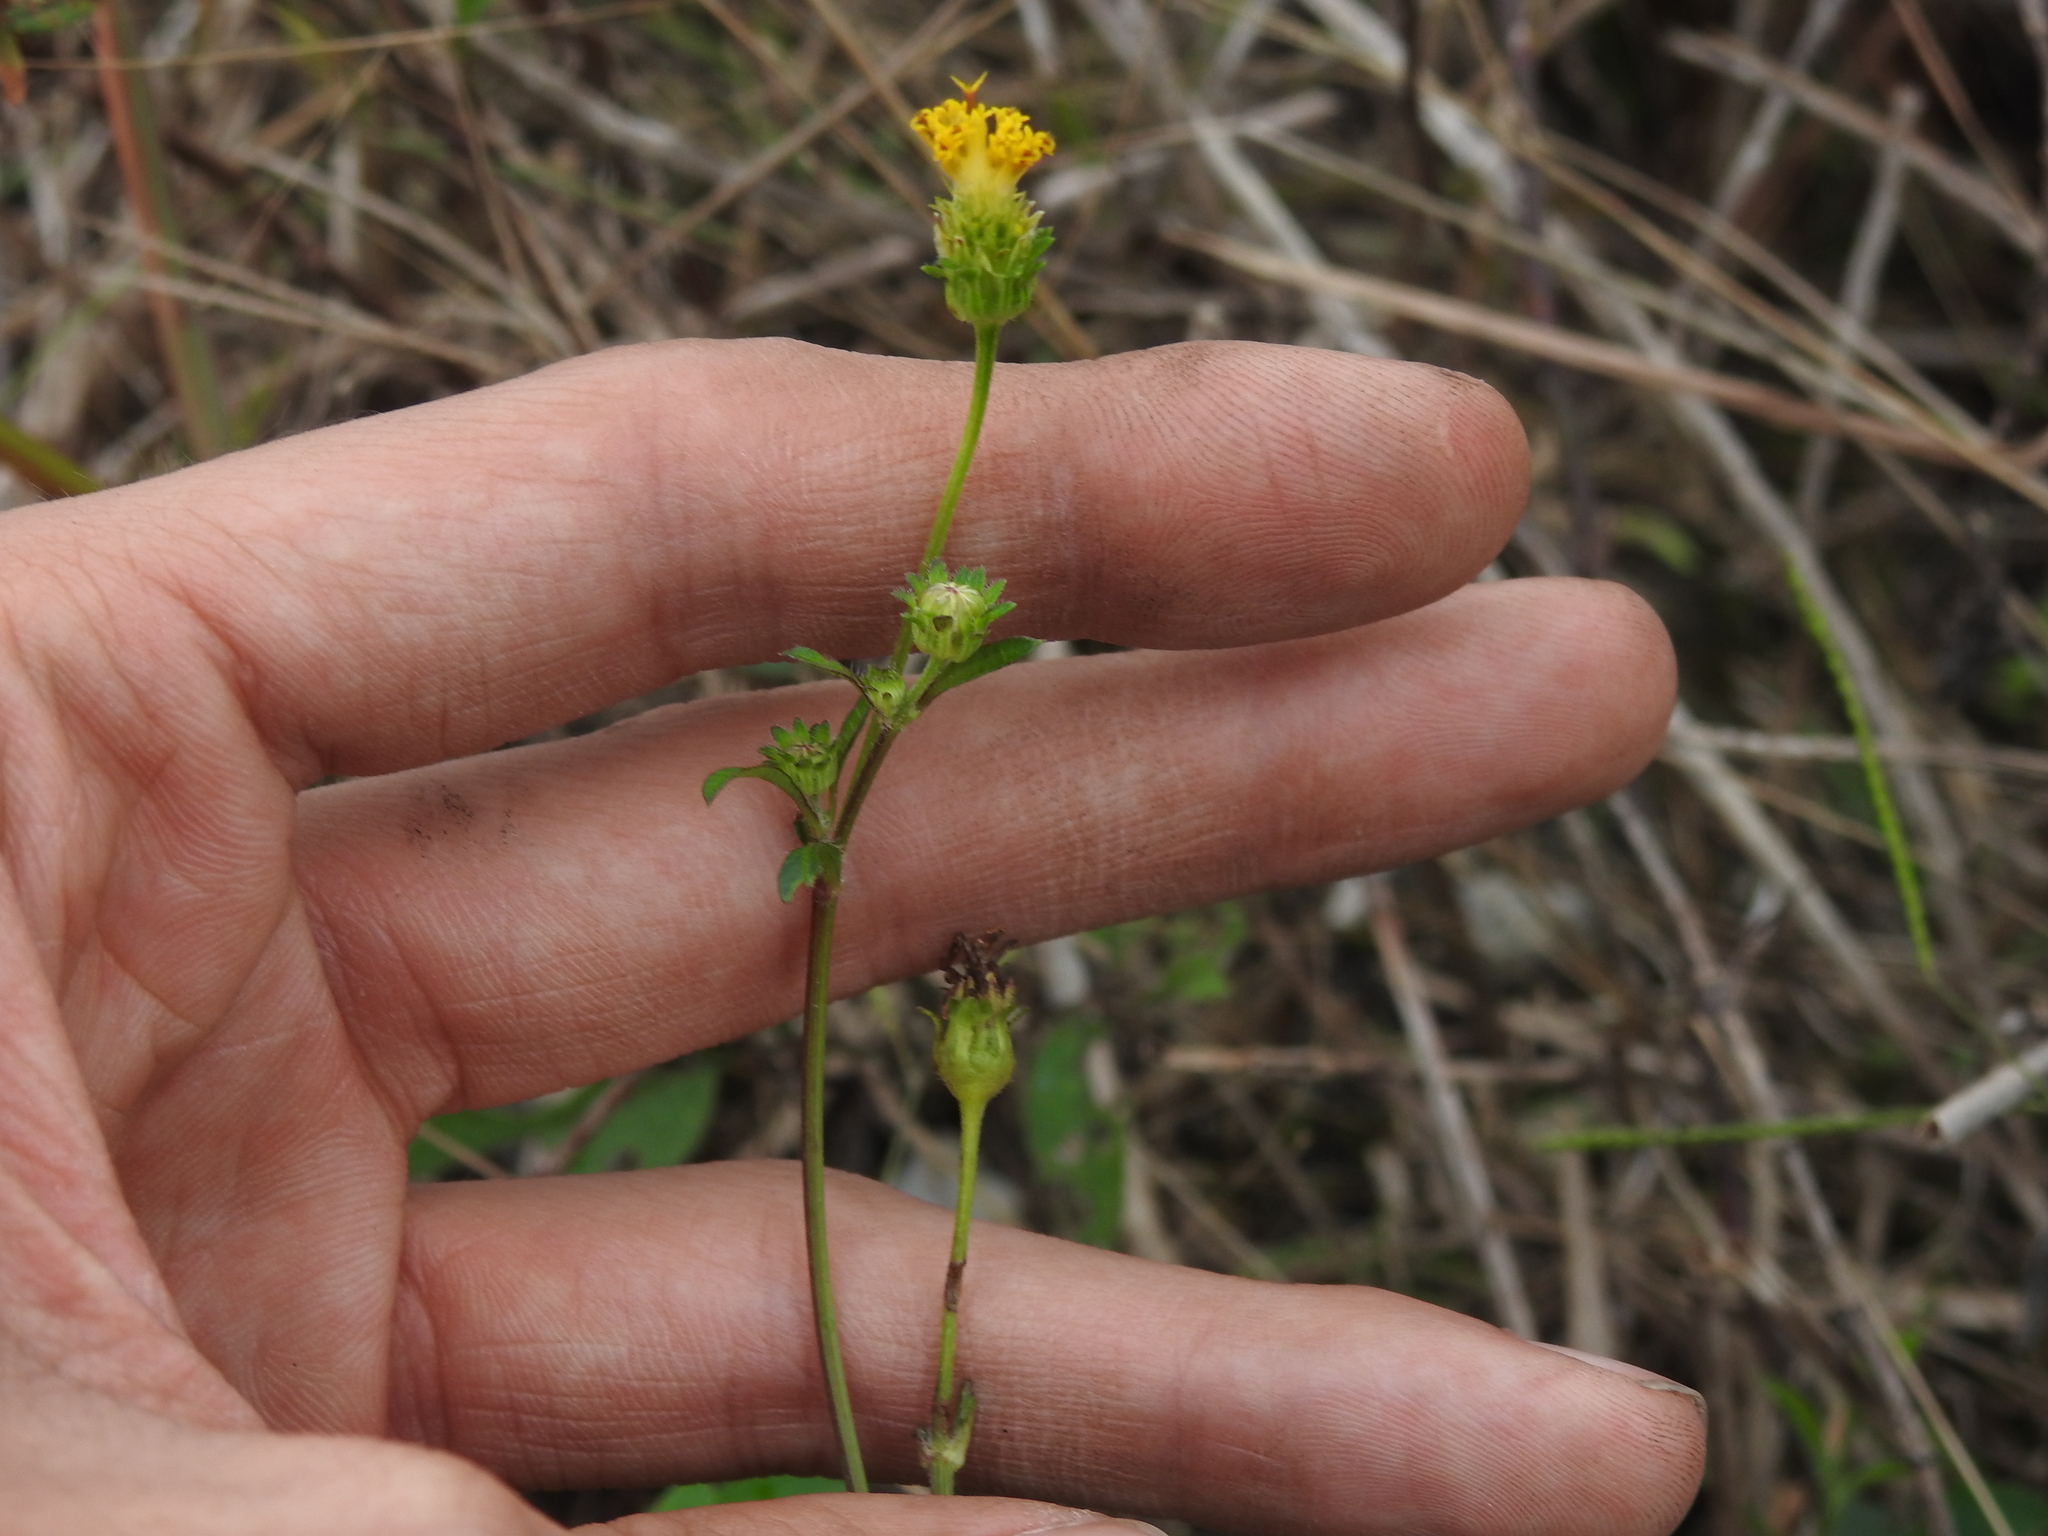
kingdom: Plantae
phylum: Tracheophyta
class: Magnoliopsida
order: Asterales
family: Asteraceae
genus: Bidens
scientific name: Bidens alba
